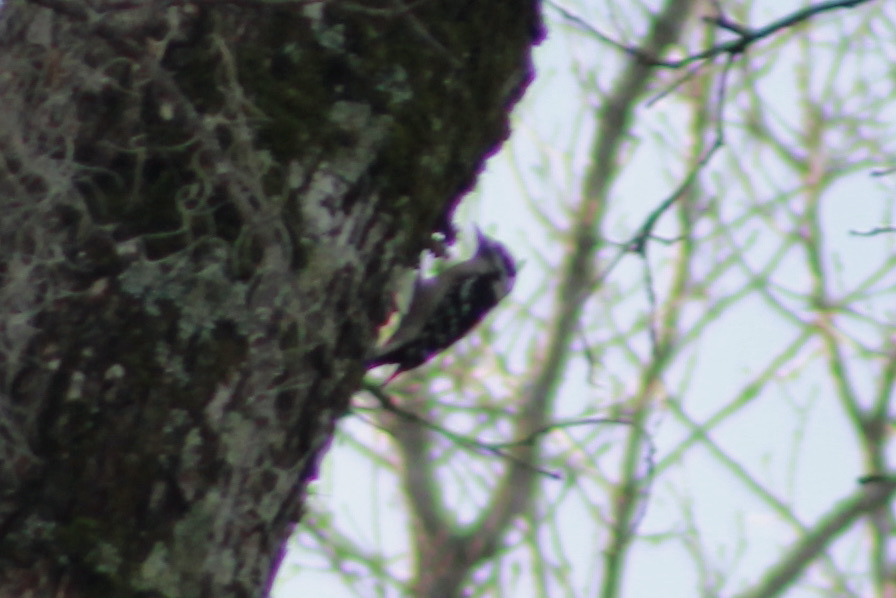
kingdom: Animalia
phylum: Chordata
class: Aves
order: Piciformes
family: Picidae
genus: Dryobates
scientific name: Dryobates pubescens
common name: Downy woodpecker
